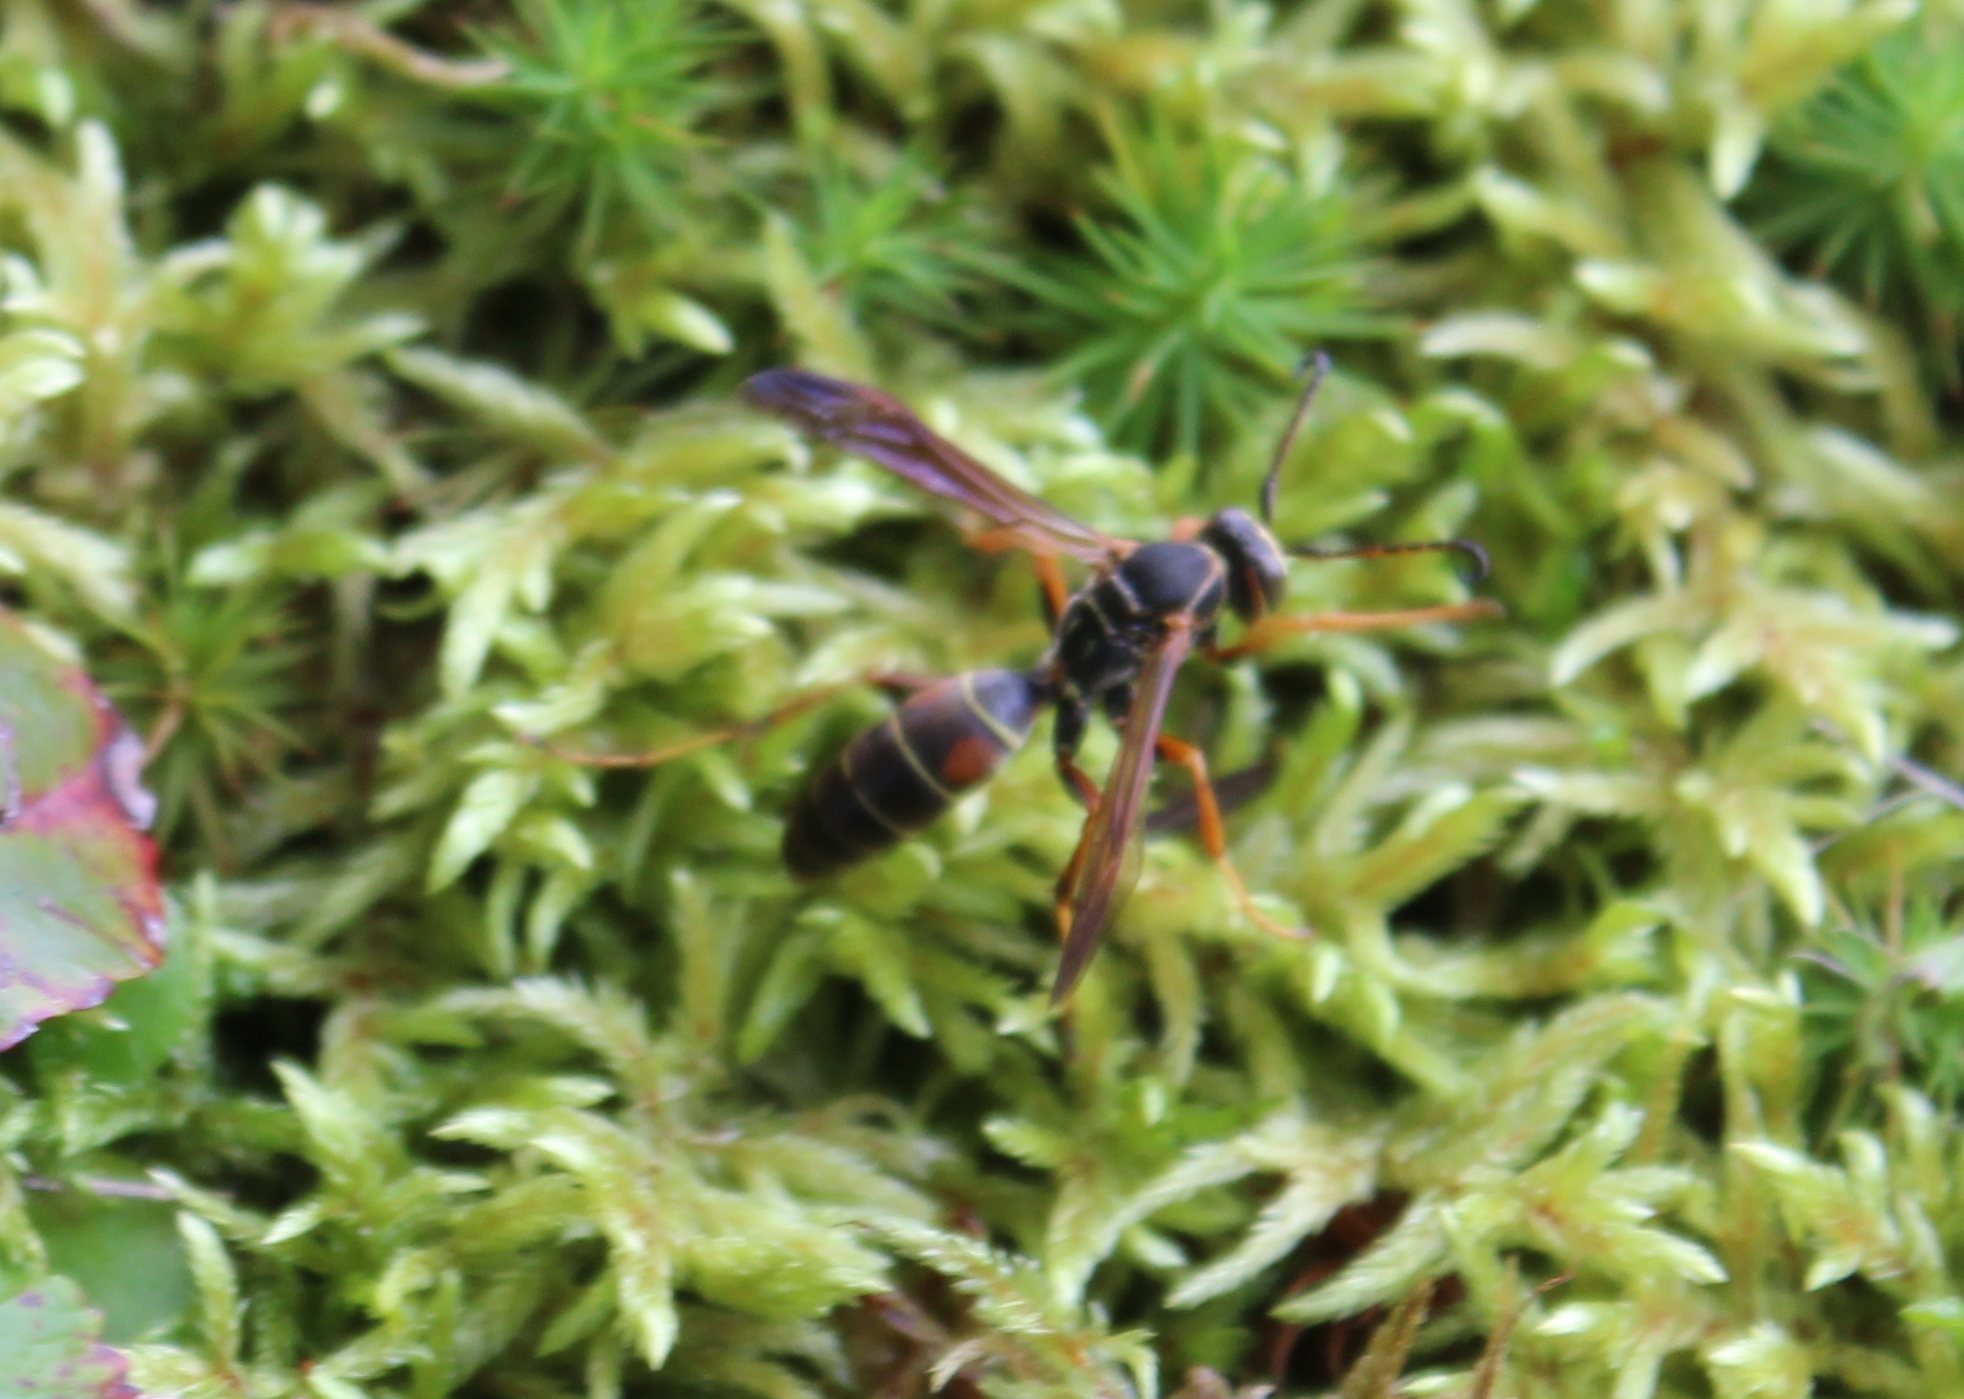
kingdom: Animalia
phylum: Arthropoda
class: Insecta
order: Hymenoptera
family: Eumenidae
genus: Polistes
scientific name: Polistes fuscatus
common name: Dark paper wasp
